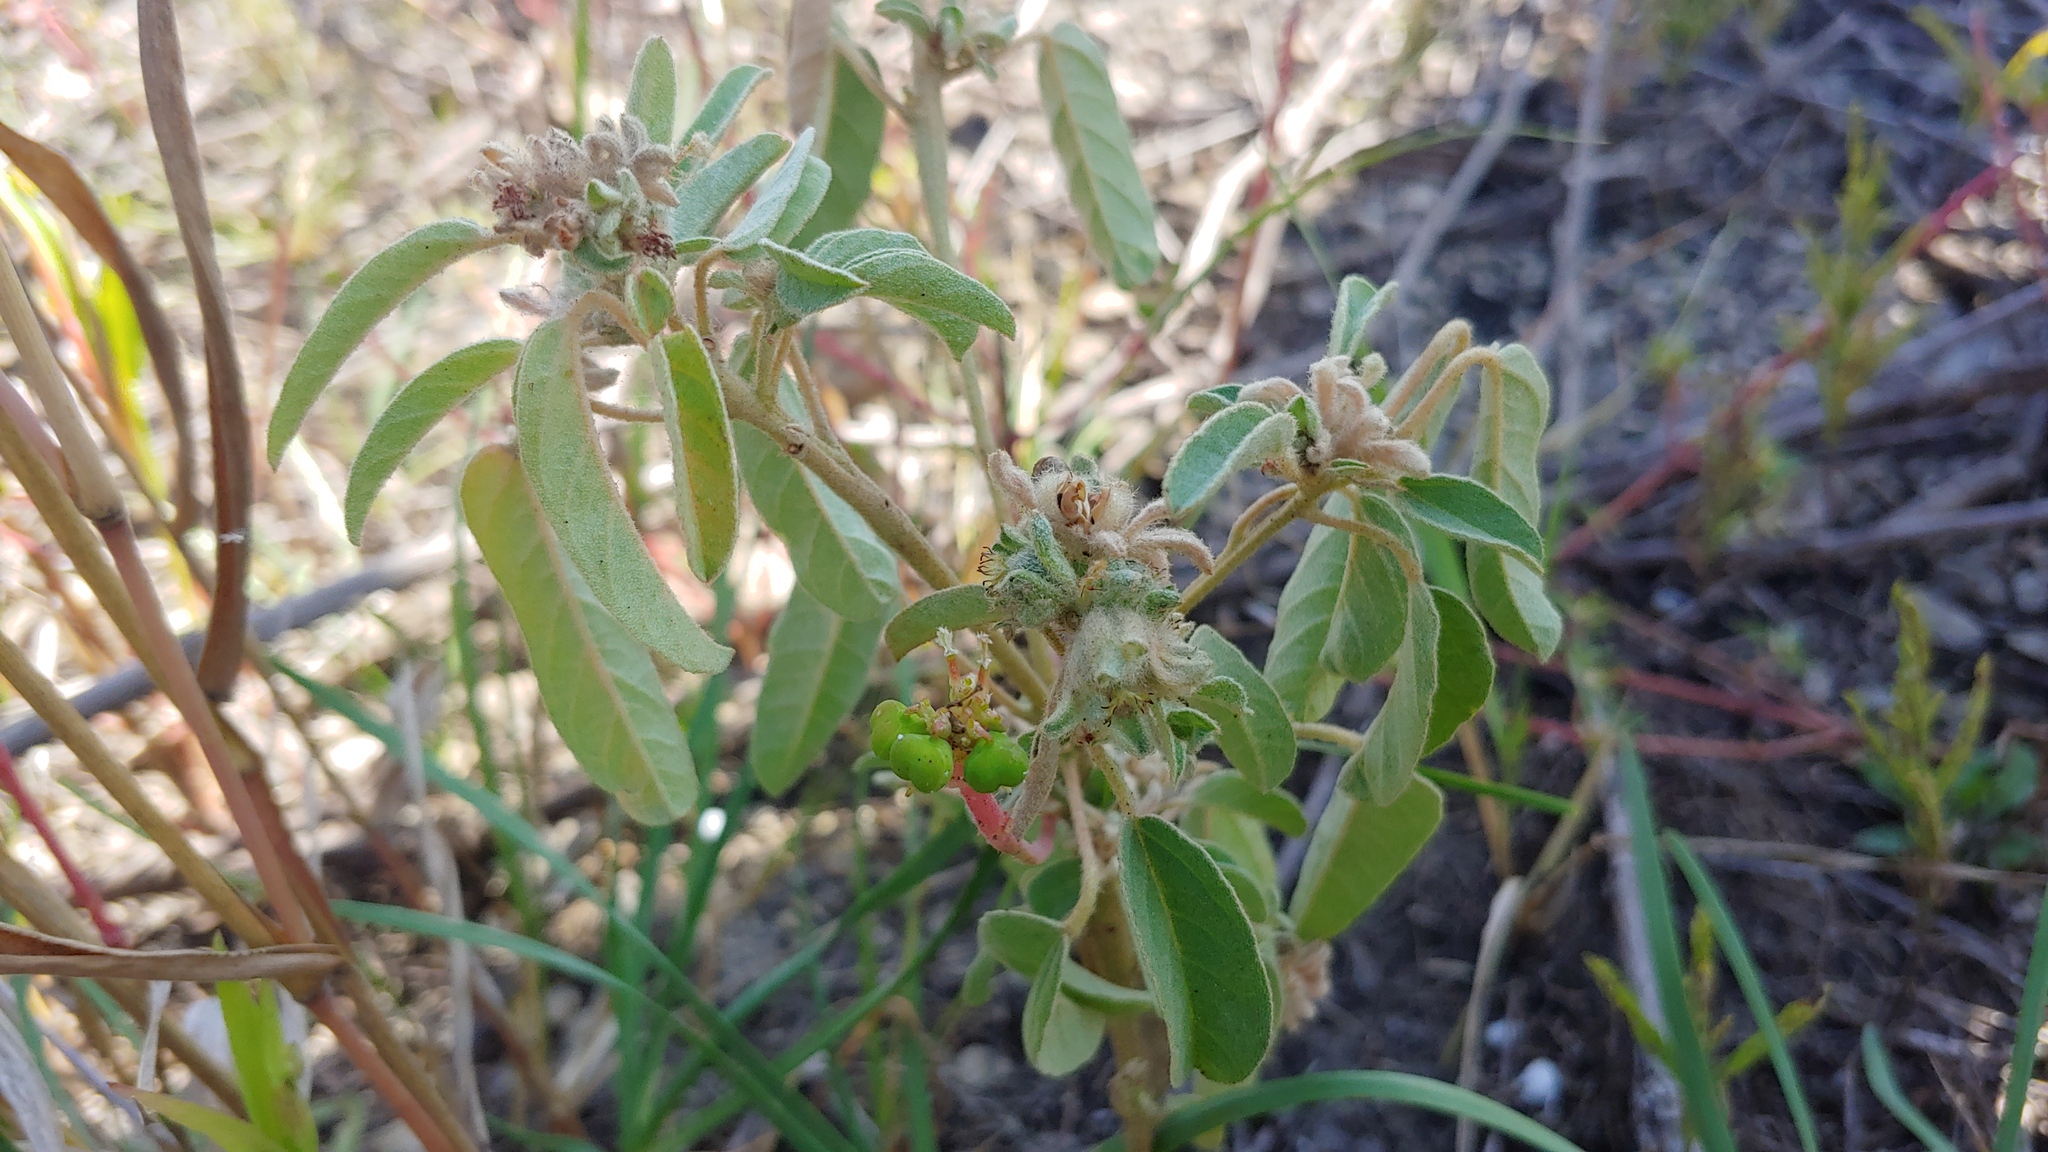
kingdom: Plantae
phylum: Tracheophyta
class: Magnoliopsida
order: Malpighiales
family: Euphorbiaceae
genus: Croton
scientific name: Croton capitatus
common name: Woolly croton
